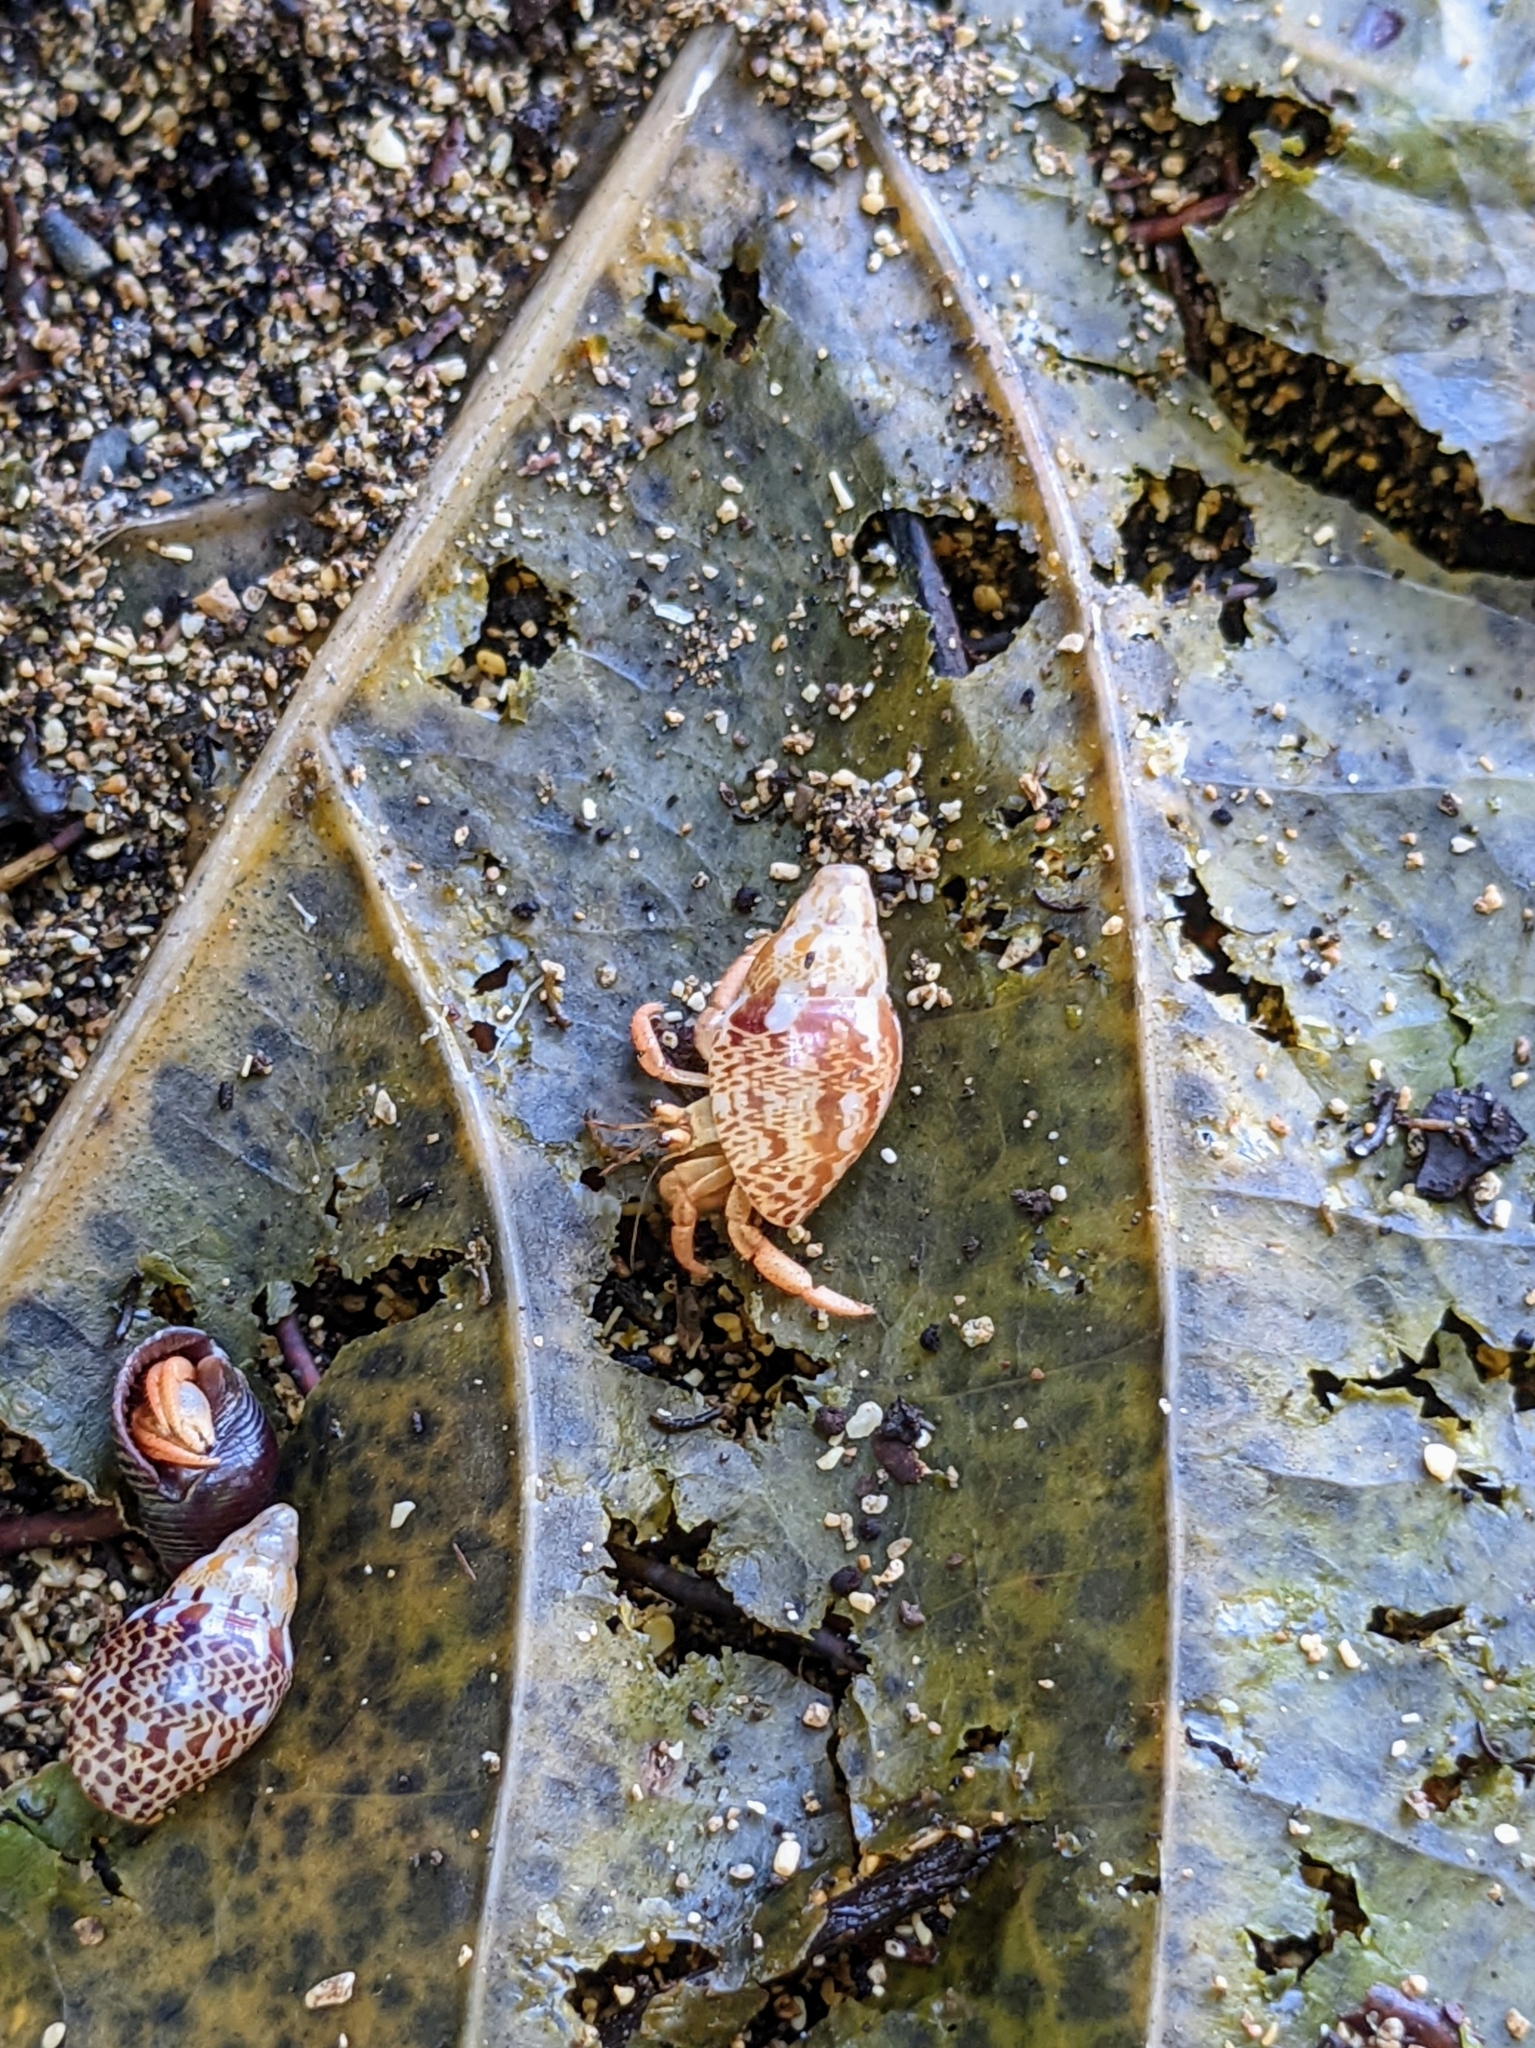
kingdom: Animalia
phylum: Arthropoda
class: Malacostraca
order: Decapoda
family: Coenobitidae
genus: Coenobita
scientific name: Coenobita clypeatus
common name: Caribbean hermit crab
